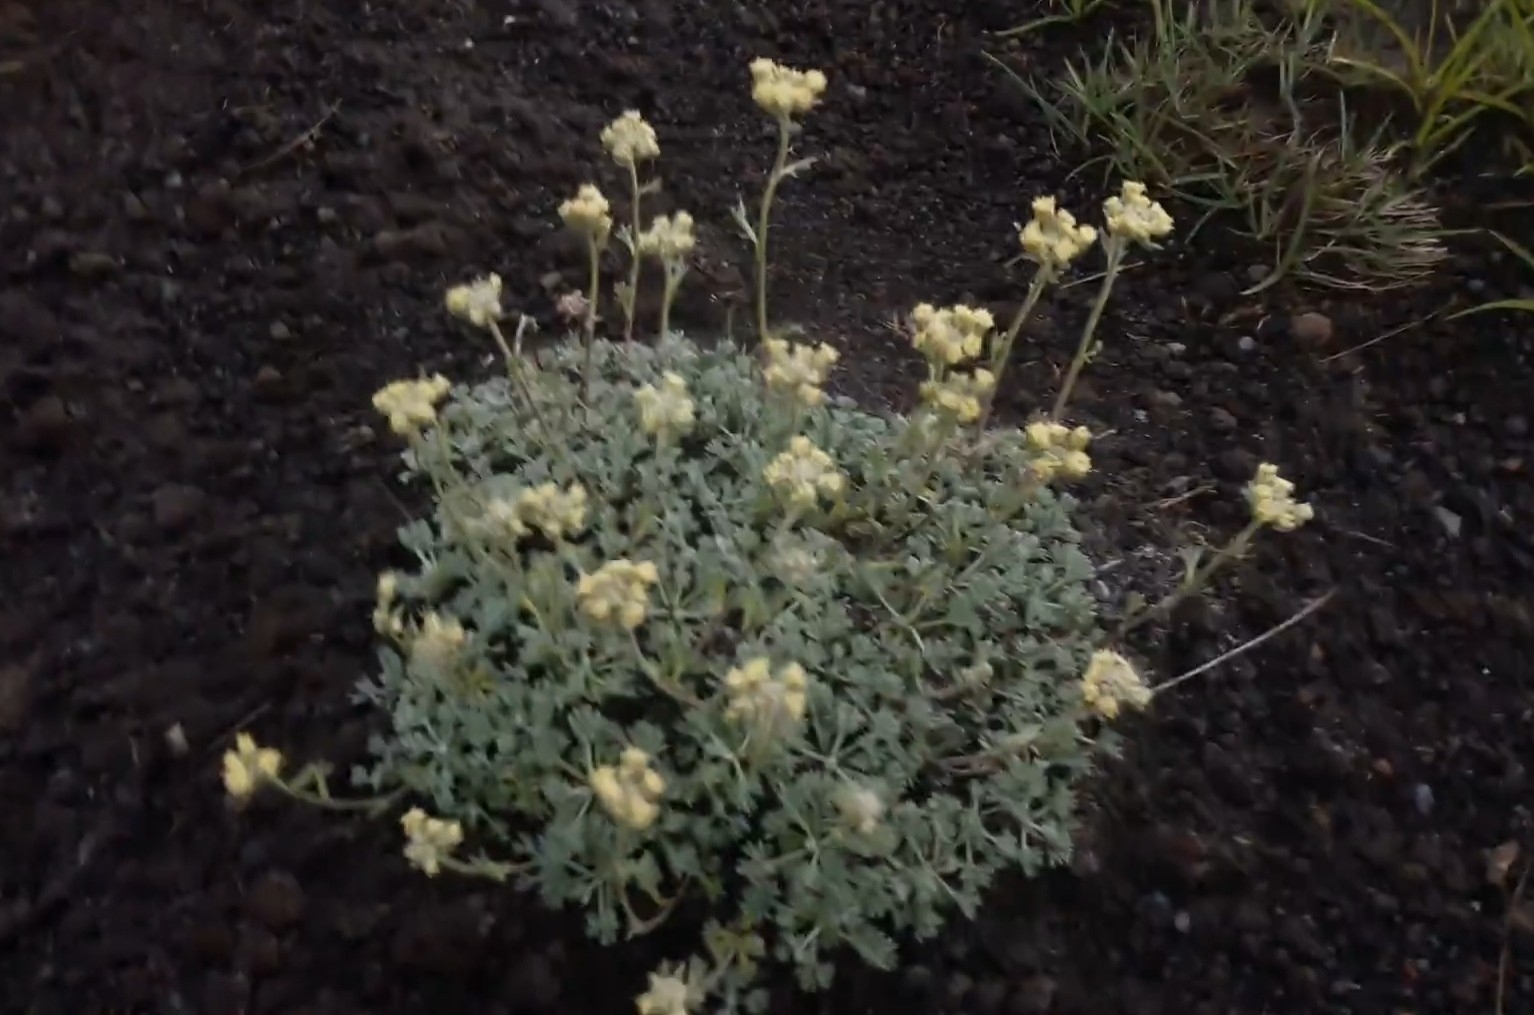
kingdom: Plantae
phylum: Tracheophyta
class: Magnoliopsida
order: Asterales
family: Asteraceae
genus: Artemisia
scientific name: Artemisia glomerata
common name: Pacific alpine wormwood
